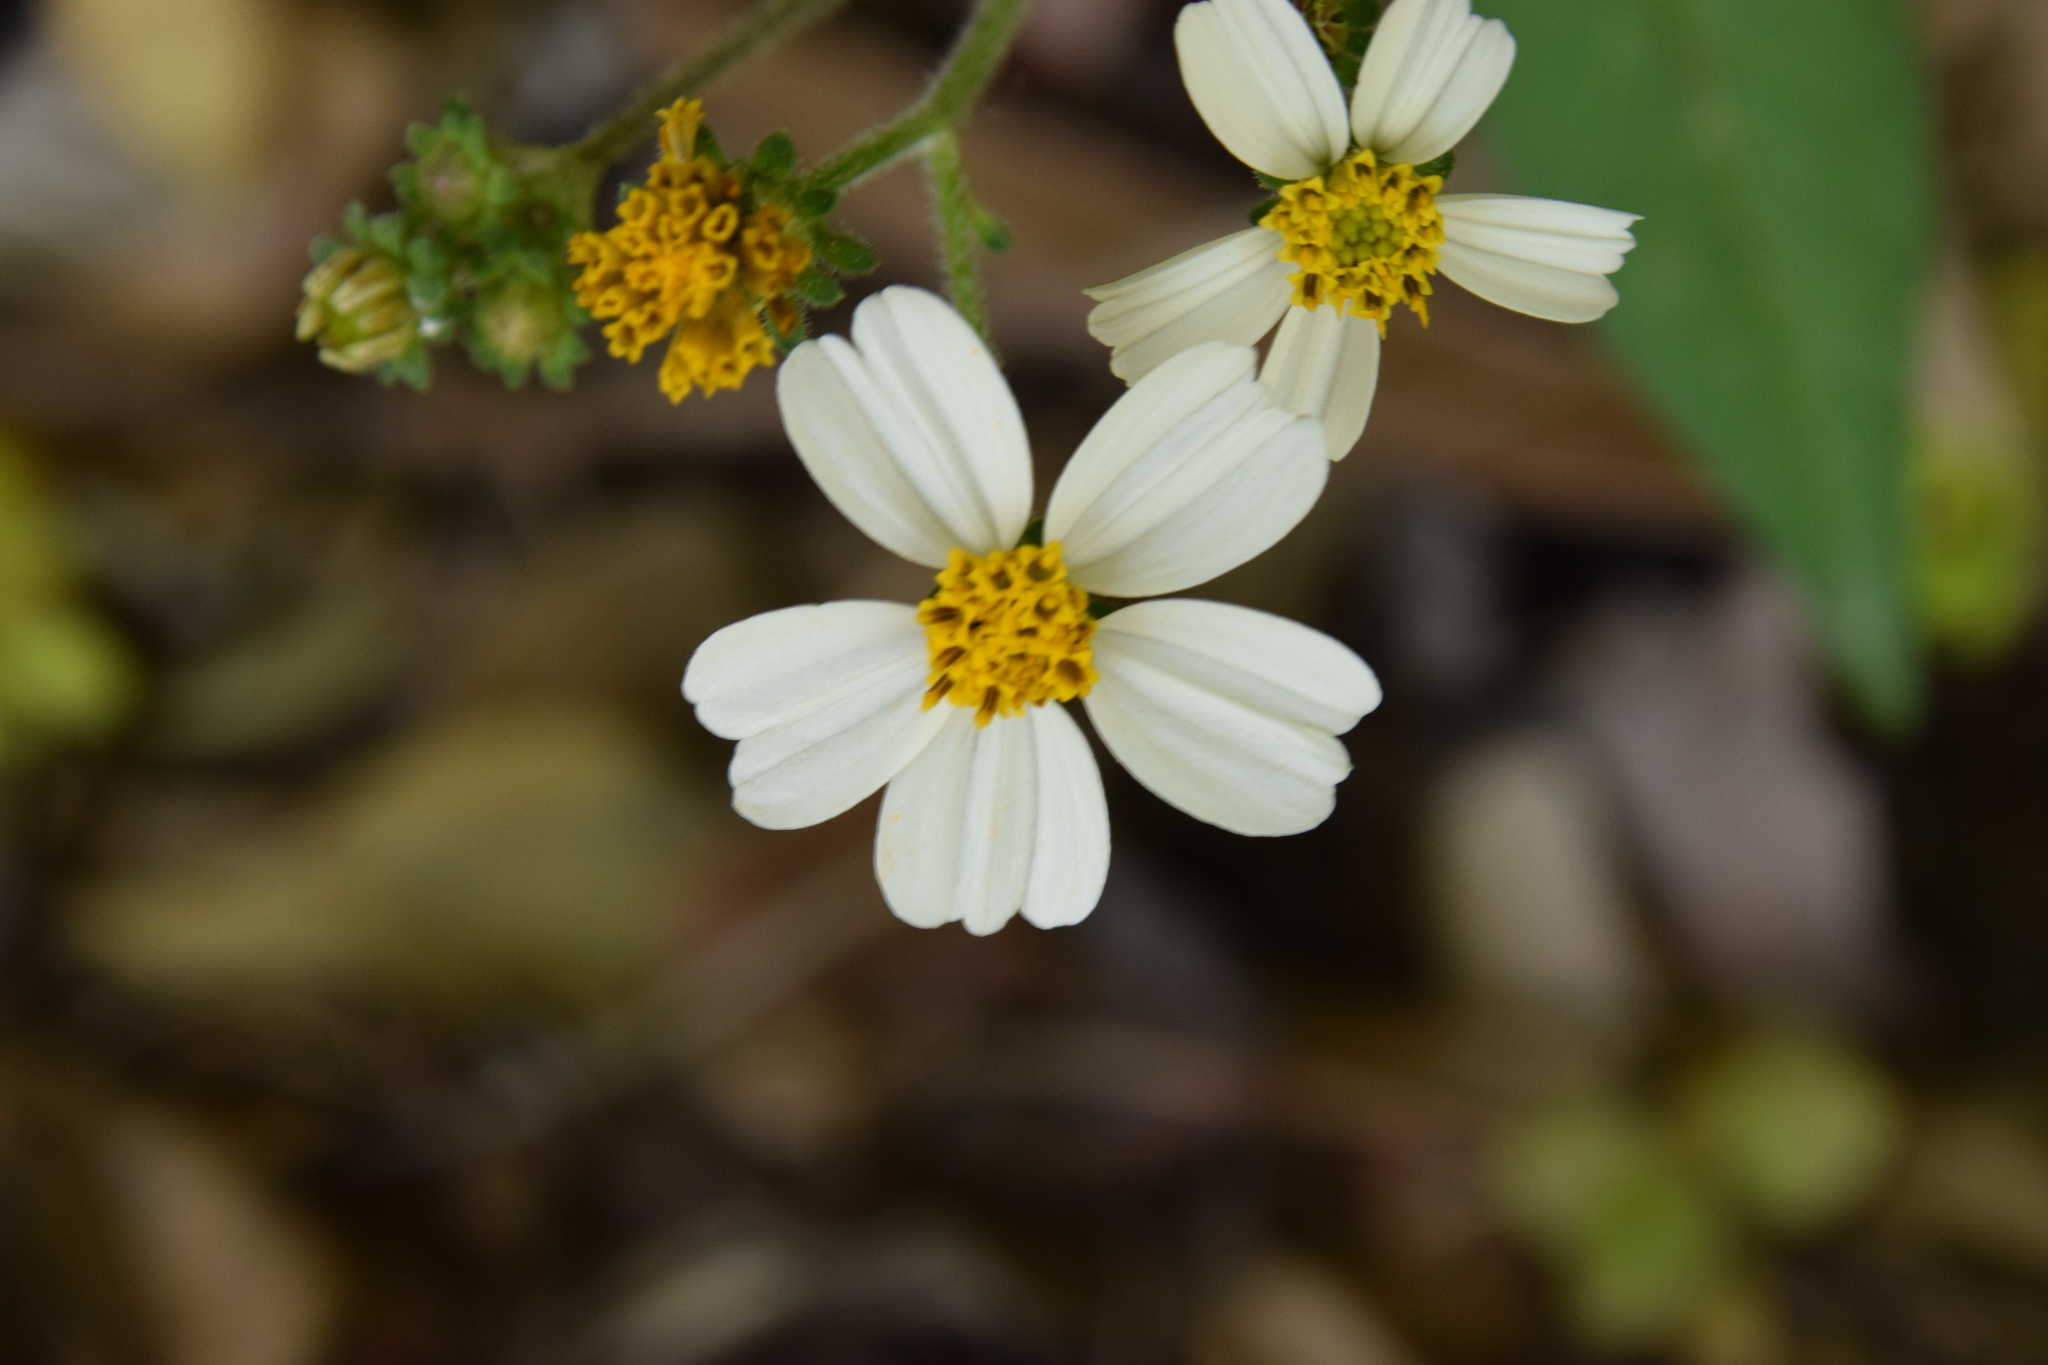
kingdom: Plantae
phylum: Tracheophyta
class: Magnoliopsida
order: Asterales
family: Asteraceae
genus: Bidens
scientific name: Bidens alba
